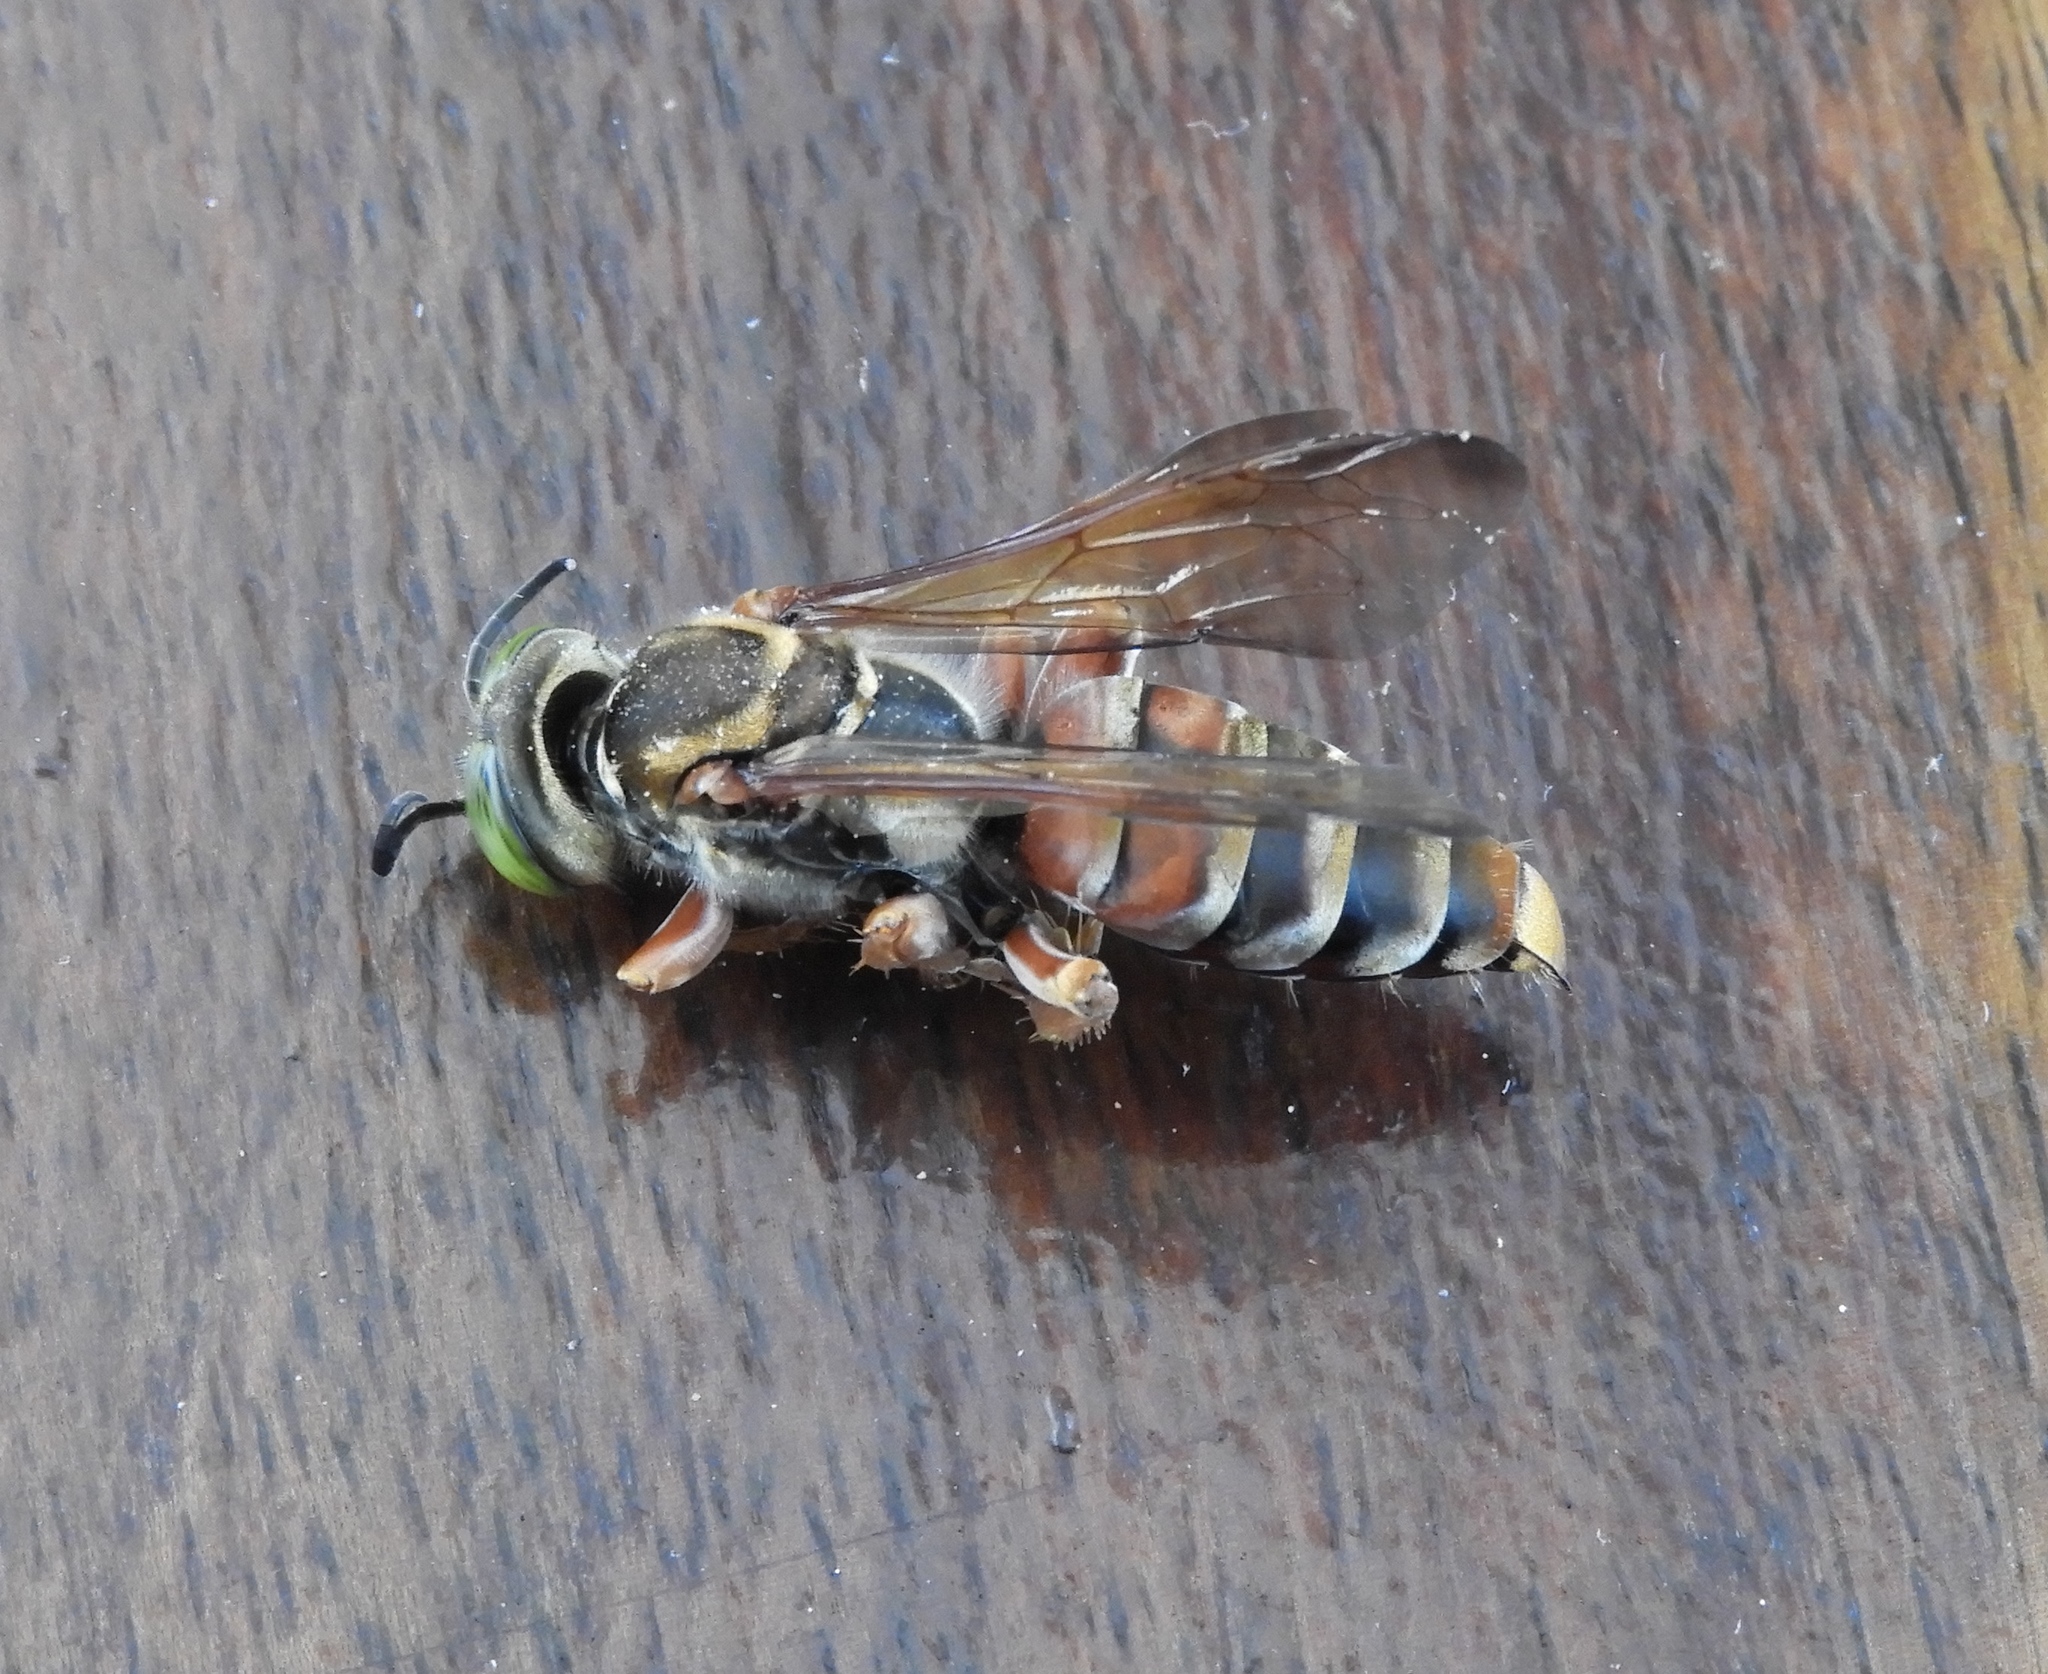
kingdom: Animalia
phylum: Arthropoda
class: Insecta
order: Hymenoptera
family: Crabronidae
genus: Tachytes
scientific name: Tachytes
